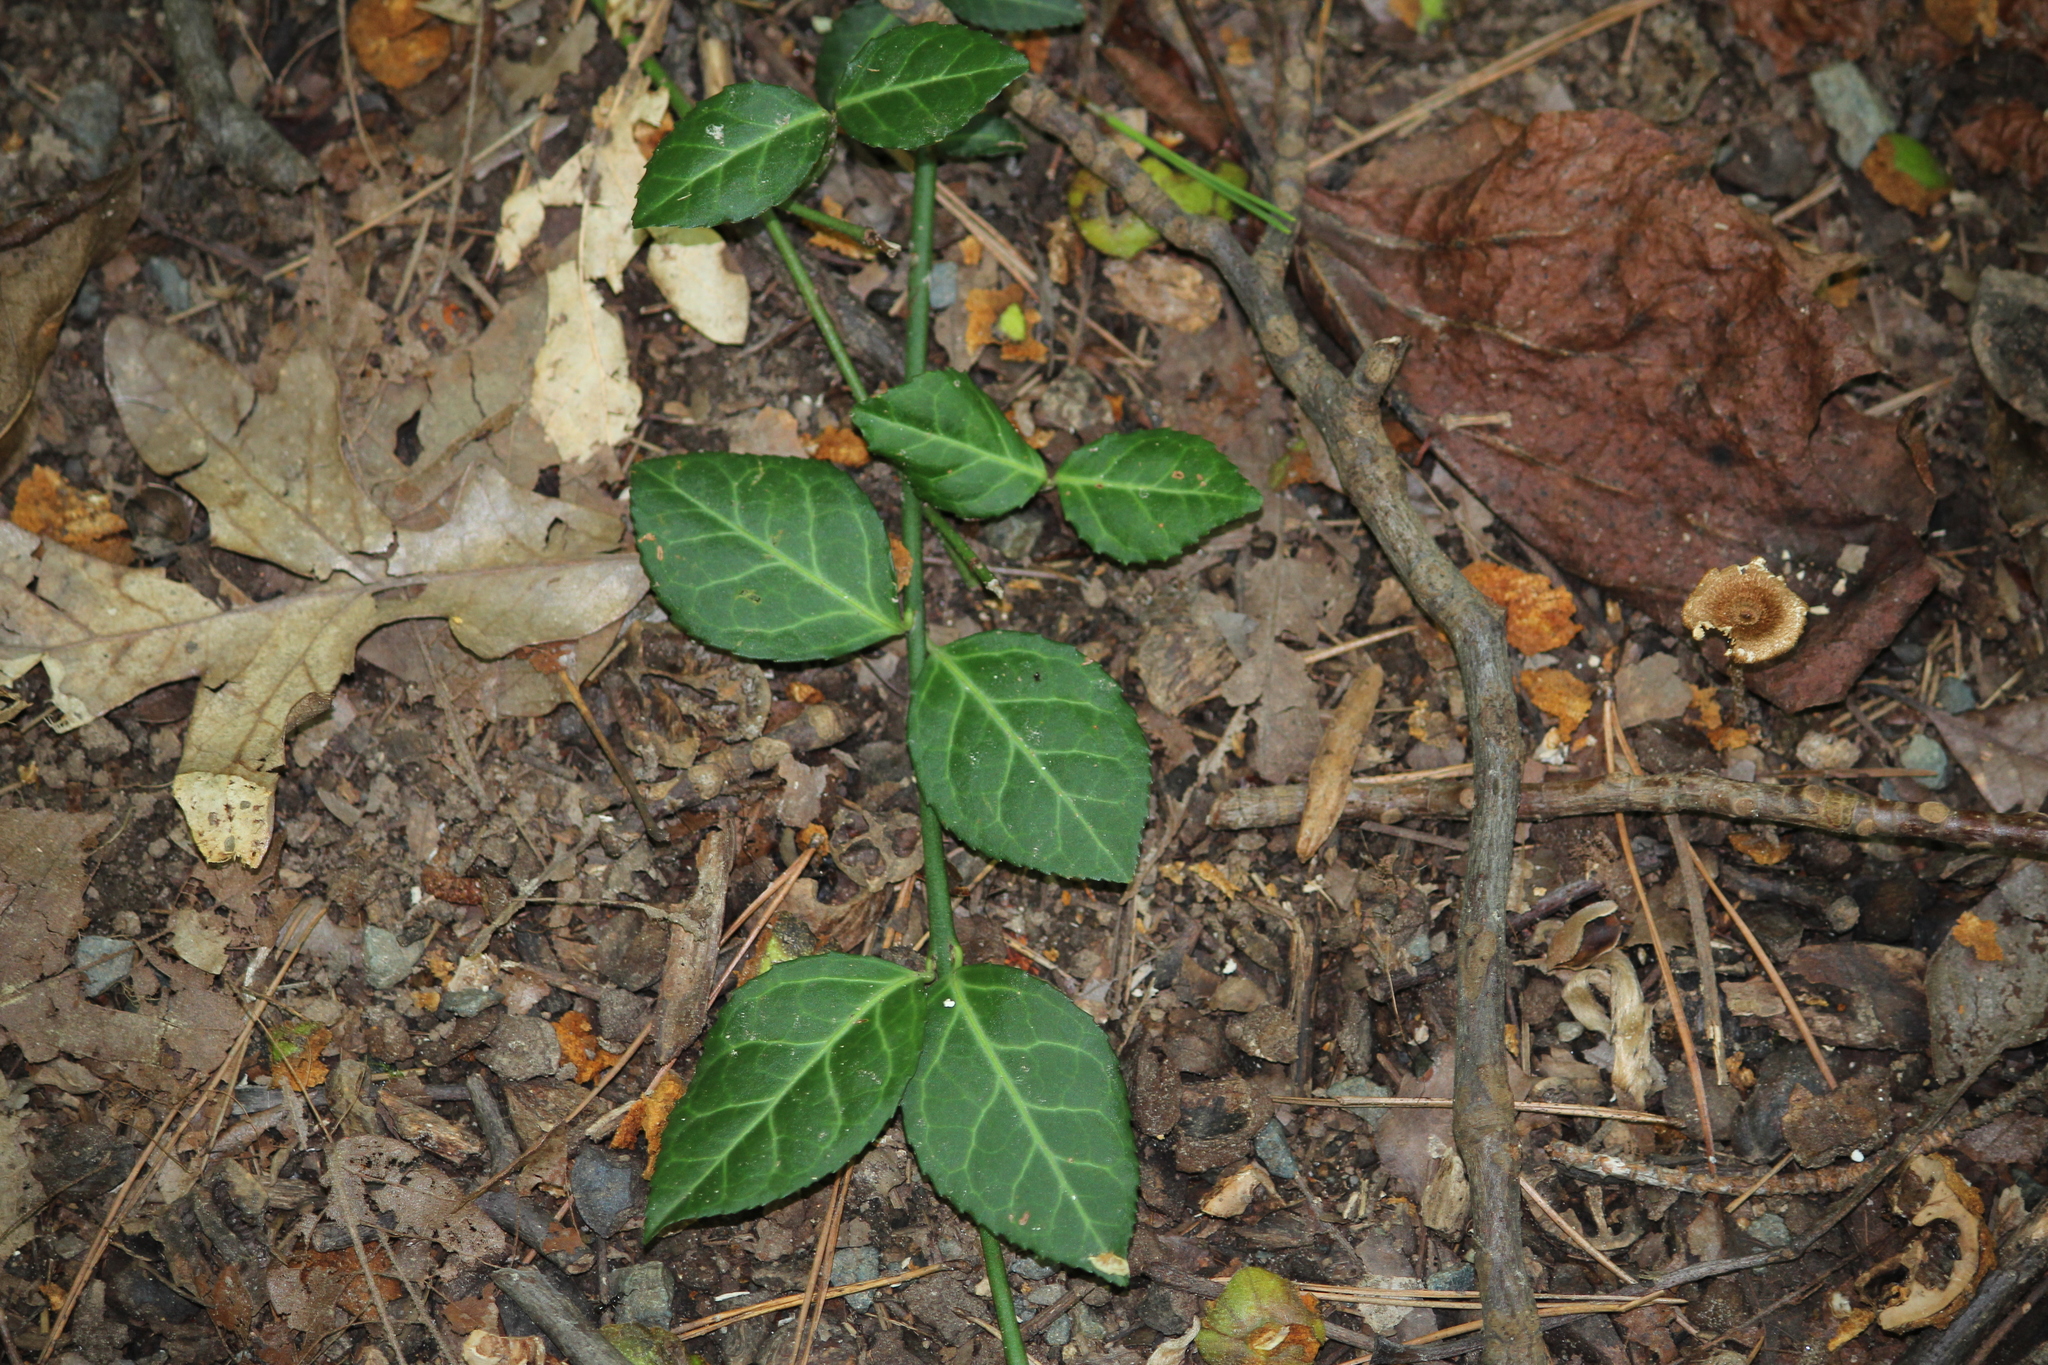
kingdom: Plantae
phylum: Tracheophyta
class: Magnoliopsida
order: Celastrales
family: Celastraceae
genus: Euonymus
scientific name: Euonymus fortunei
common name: Climbing euonymus
